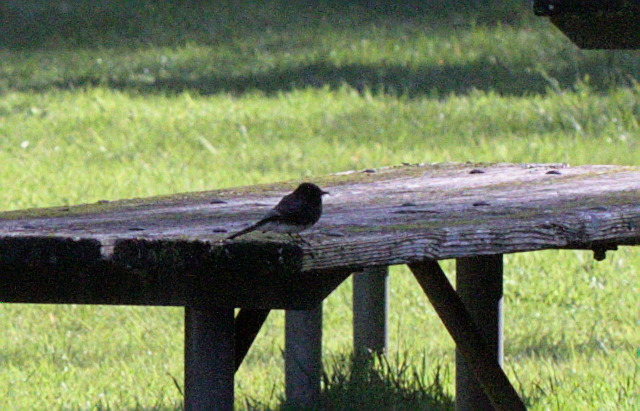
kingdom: Animalia
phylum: Chordata
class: Aves
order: Passeriformes
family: Tyrannidae
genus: Sayornis
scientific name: Sayornis nigricans
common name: Black phoebe
